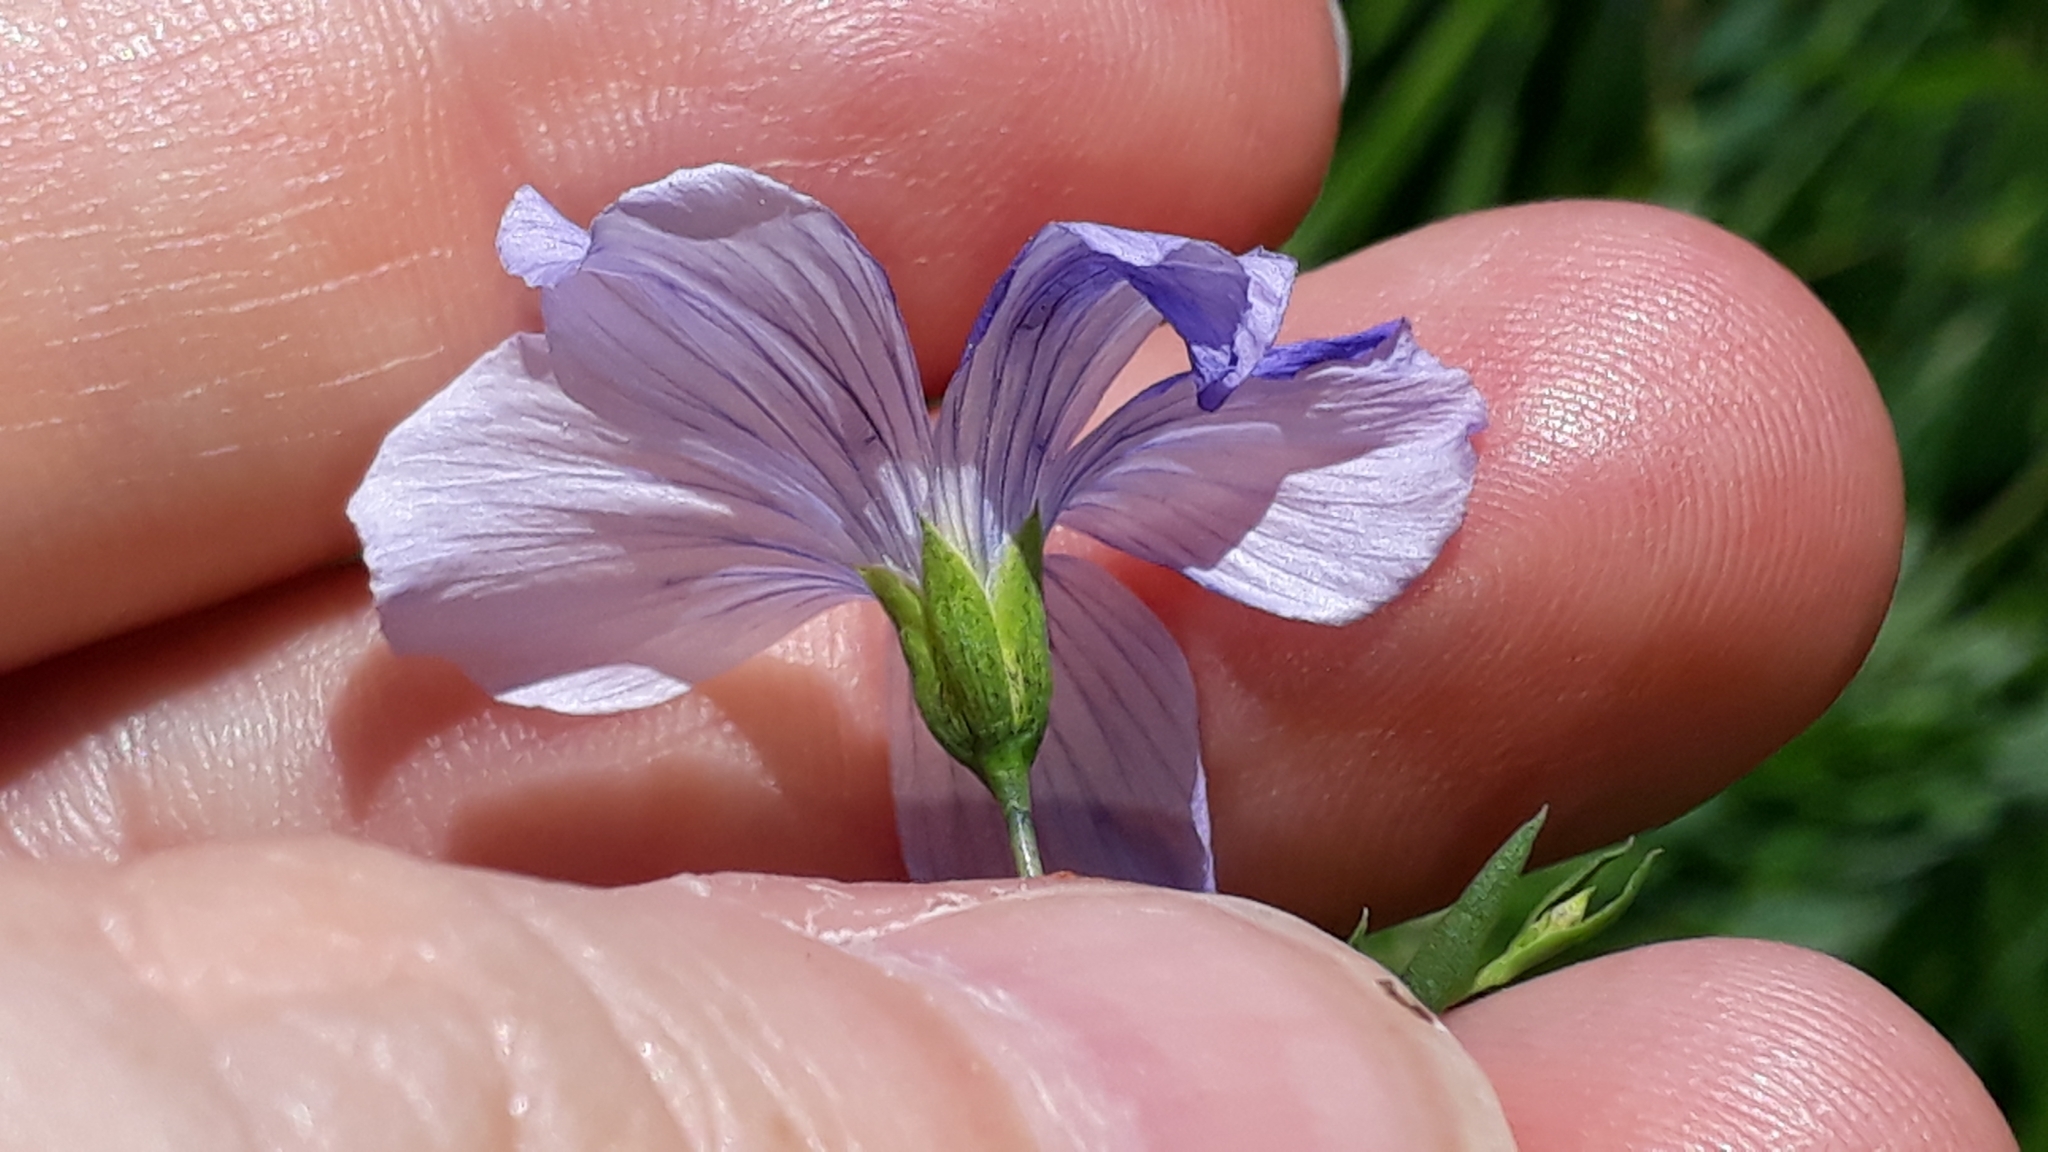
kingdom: Plantae
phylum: Tracheophyta
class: Magnoliopsida
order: Malpighiales
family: Linaceae
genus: Linum
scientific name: Linum alpinum
